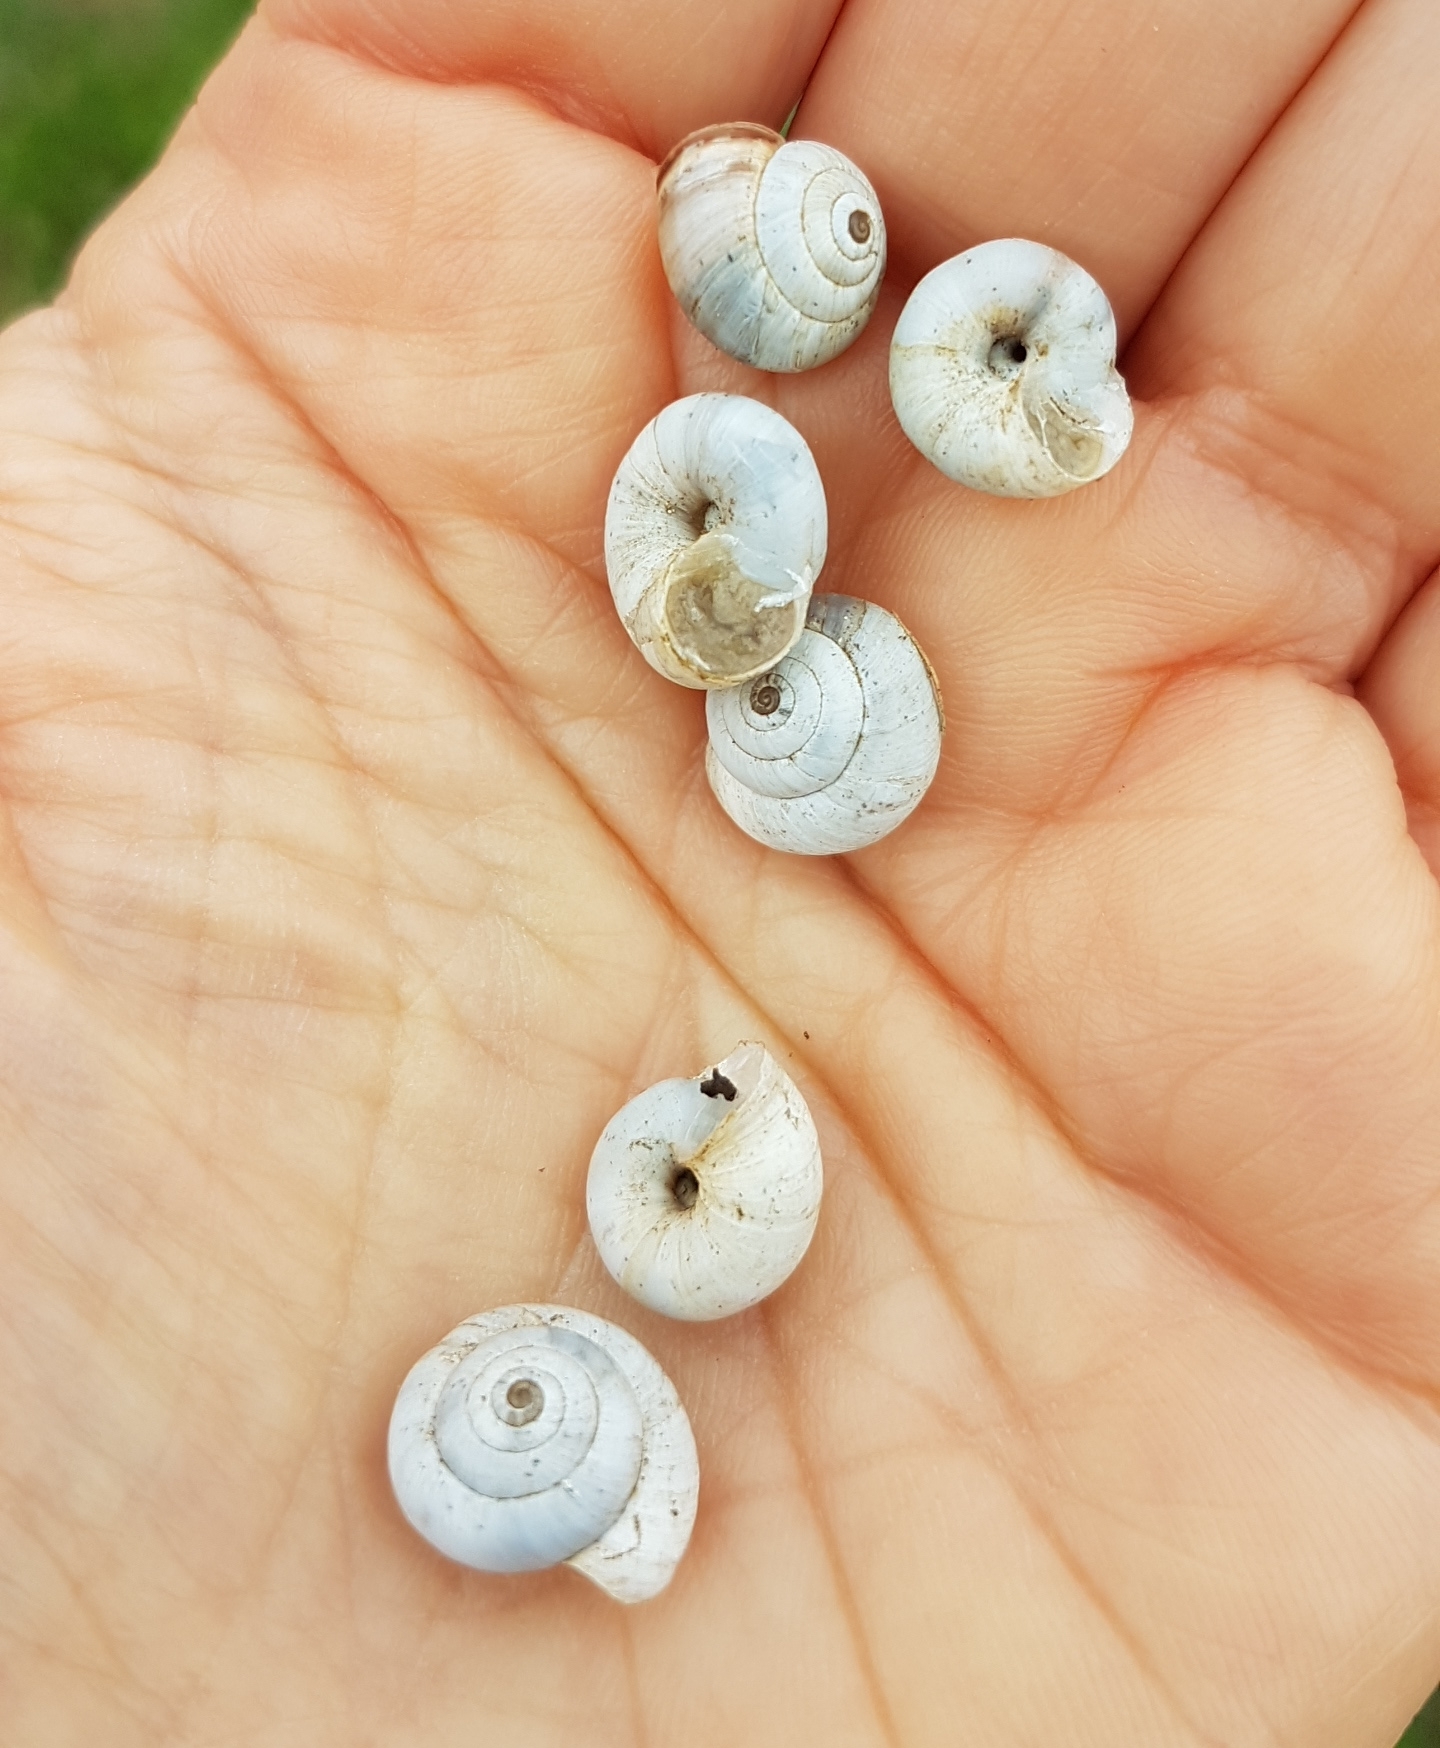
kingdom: Animalia
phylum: Mollusca
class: Gastropoda
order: Stylommatophora
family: Geomitridae
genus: Xeropicta
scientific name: Xeropicta derbentina
